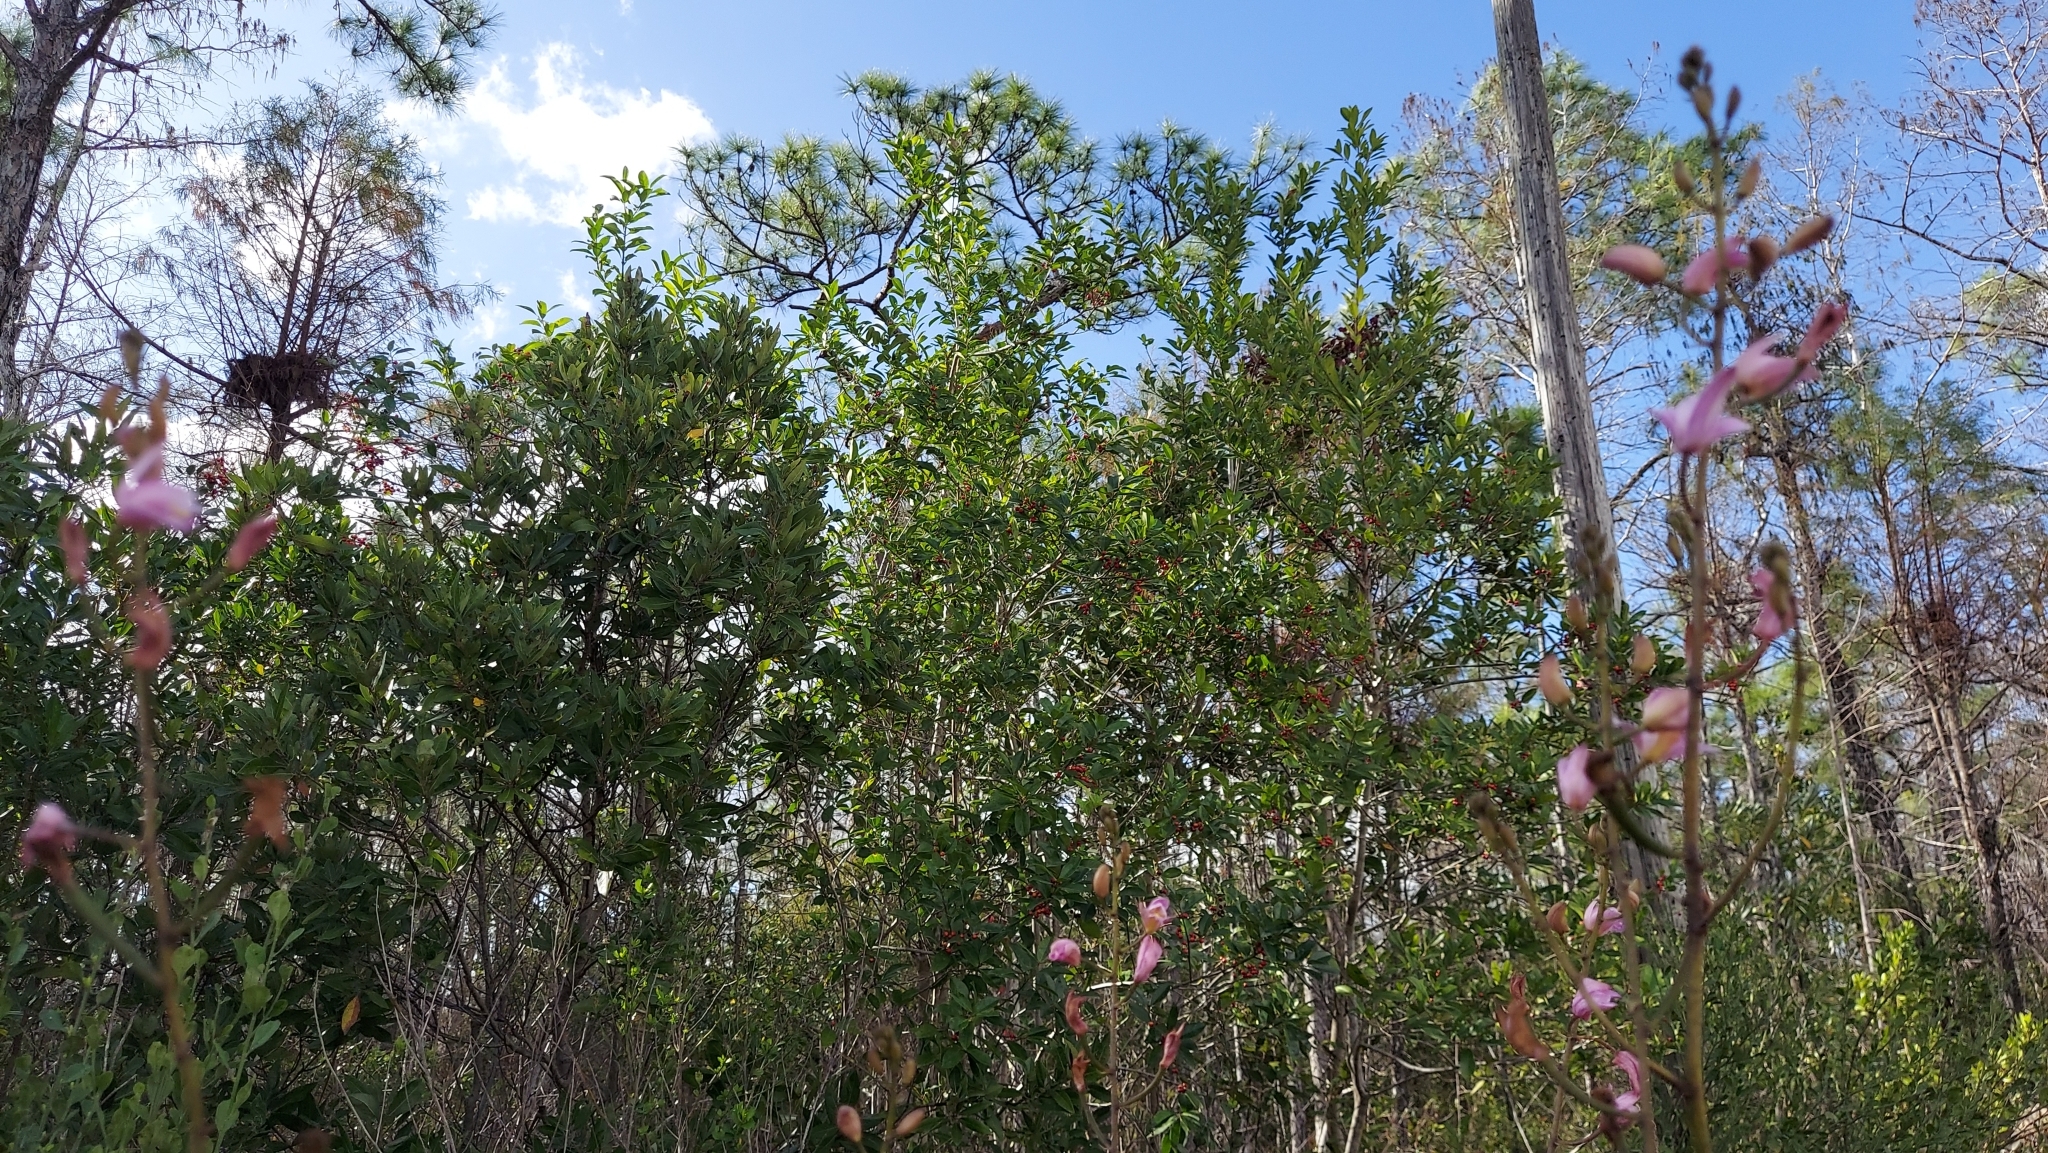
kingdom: Plantae
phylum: Tracheophyta
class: Liliopsida
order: Asparagales
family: Orchidaceae
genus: Bletia
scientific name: Bletia purpurea
